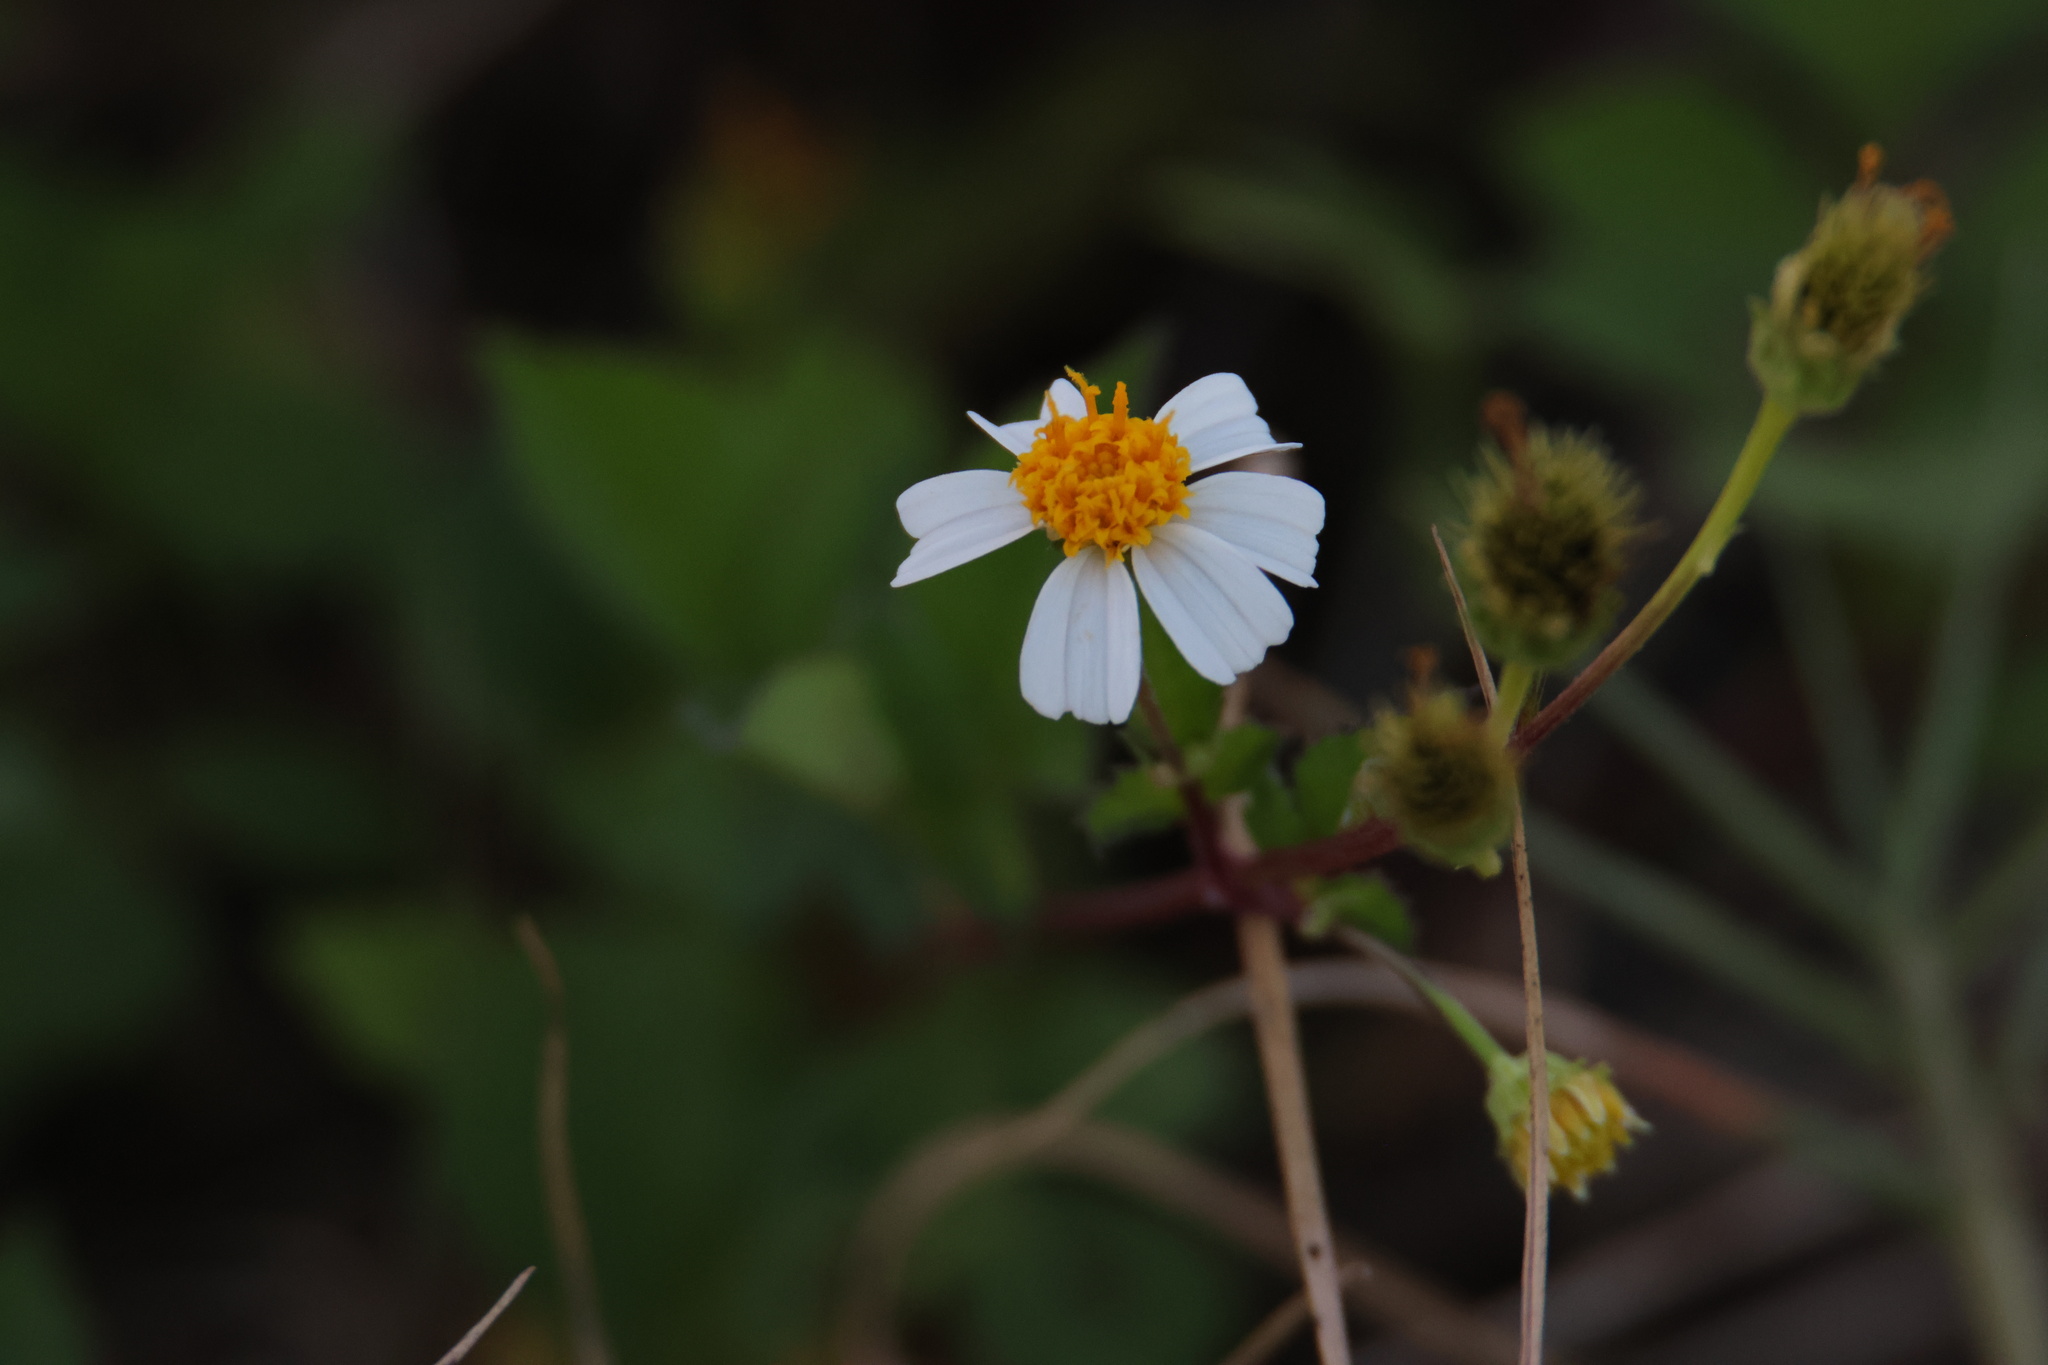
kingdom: Plantae
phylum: Tracheophyta
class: Magnoliopsida
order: Asterales
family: Asteraceae
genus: Bidens
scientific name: Bidens alba
